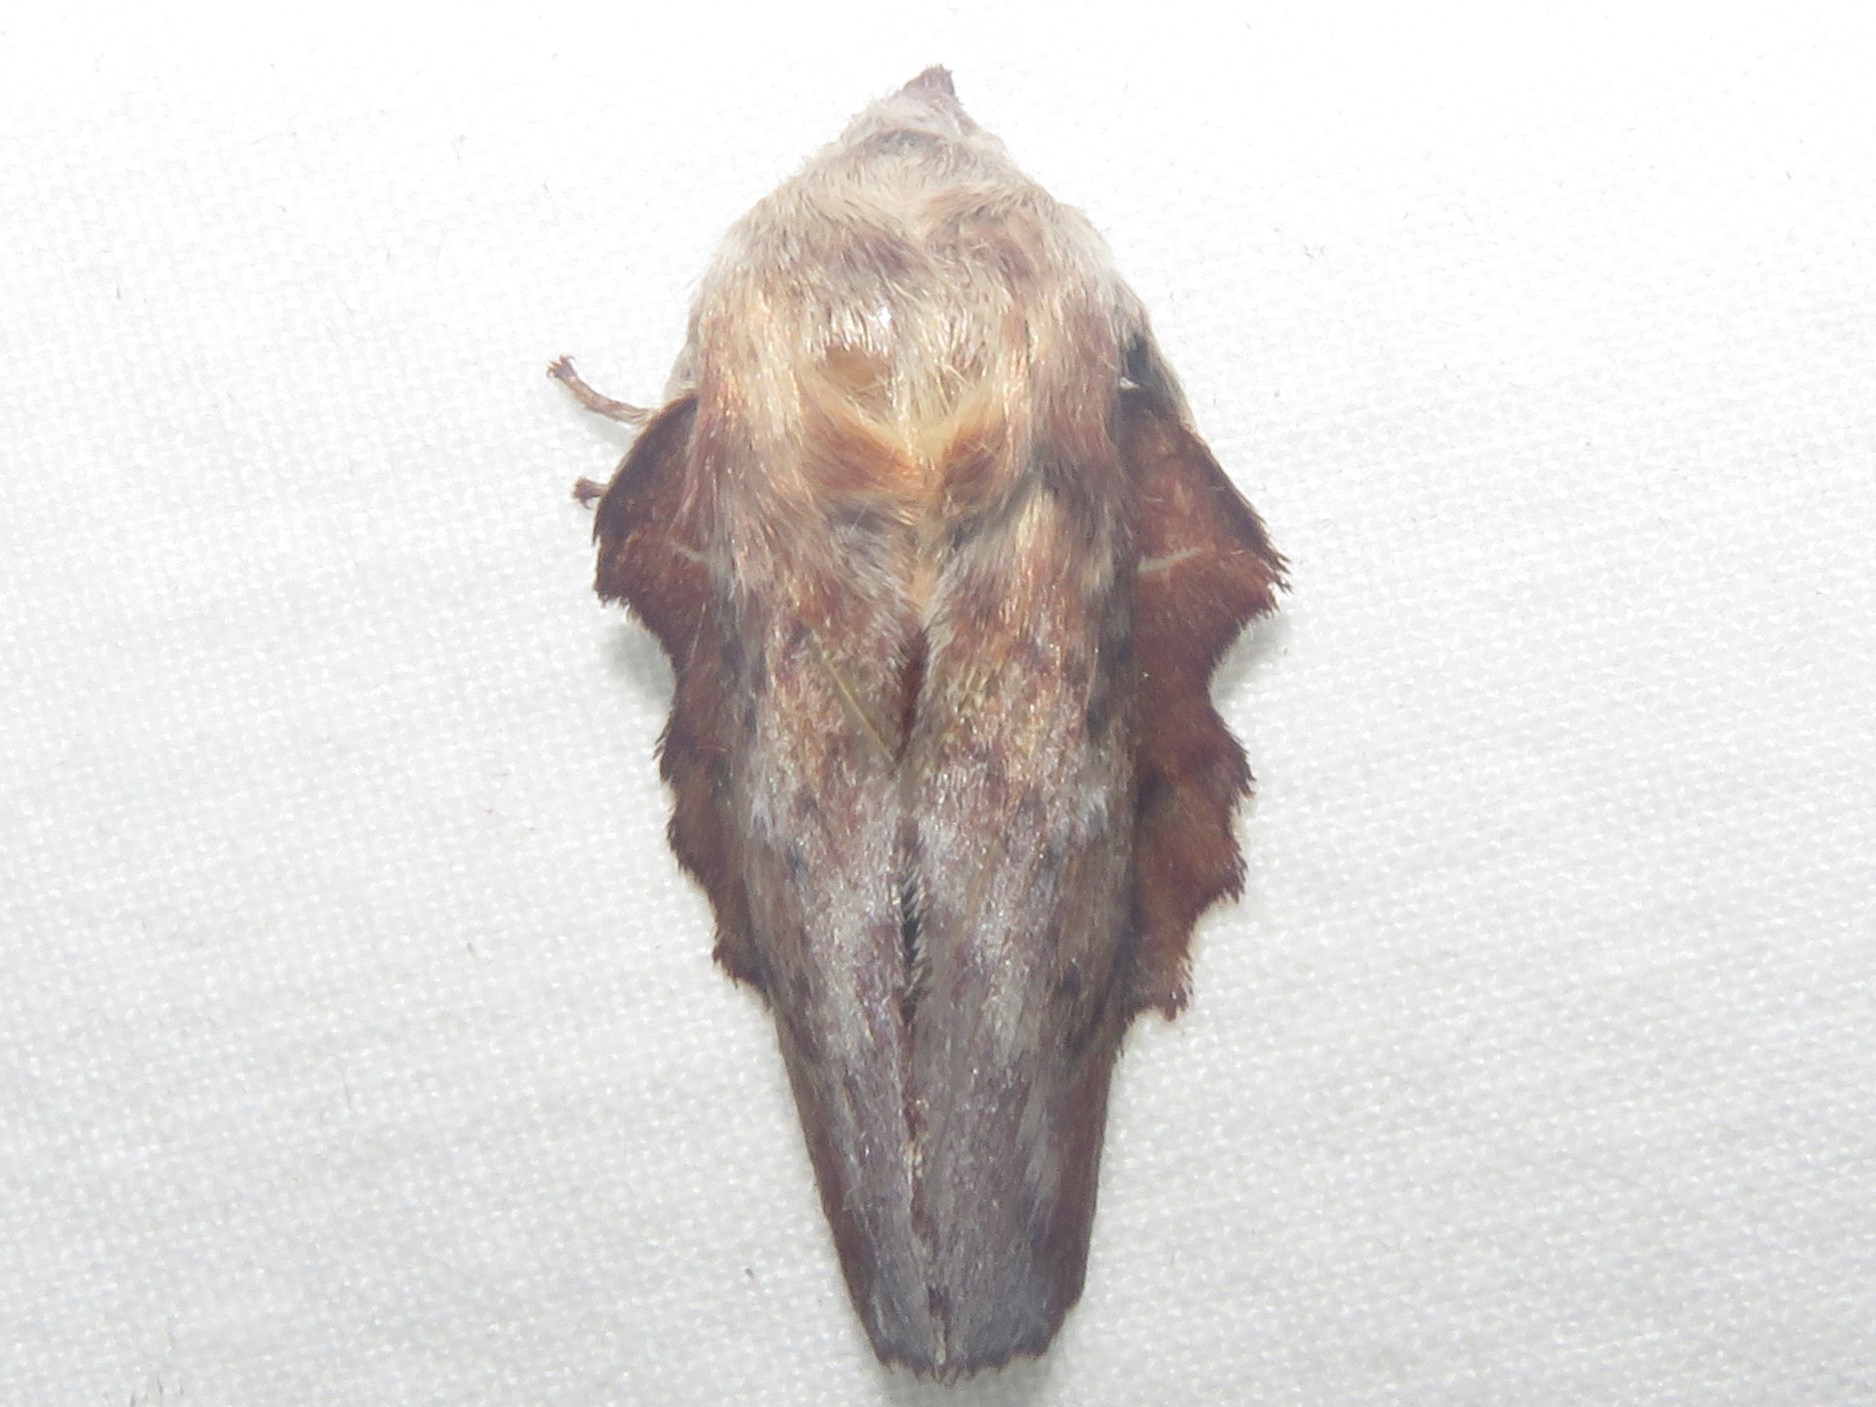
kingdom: Animalia
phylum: Arthropoda
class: Insecta
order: Lepidoptera
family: Lasiocampidae
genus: Phyllodesma
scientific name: Phyllodesma americana
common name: American lappet moth
